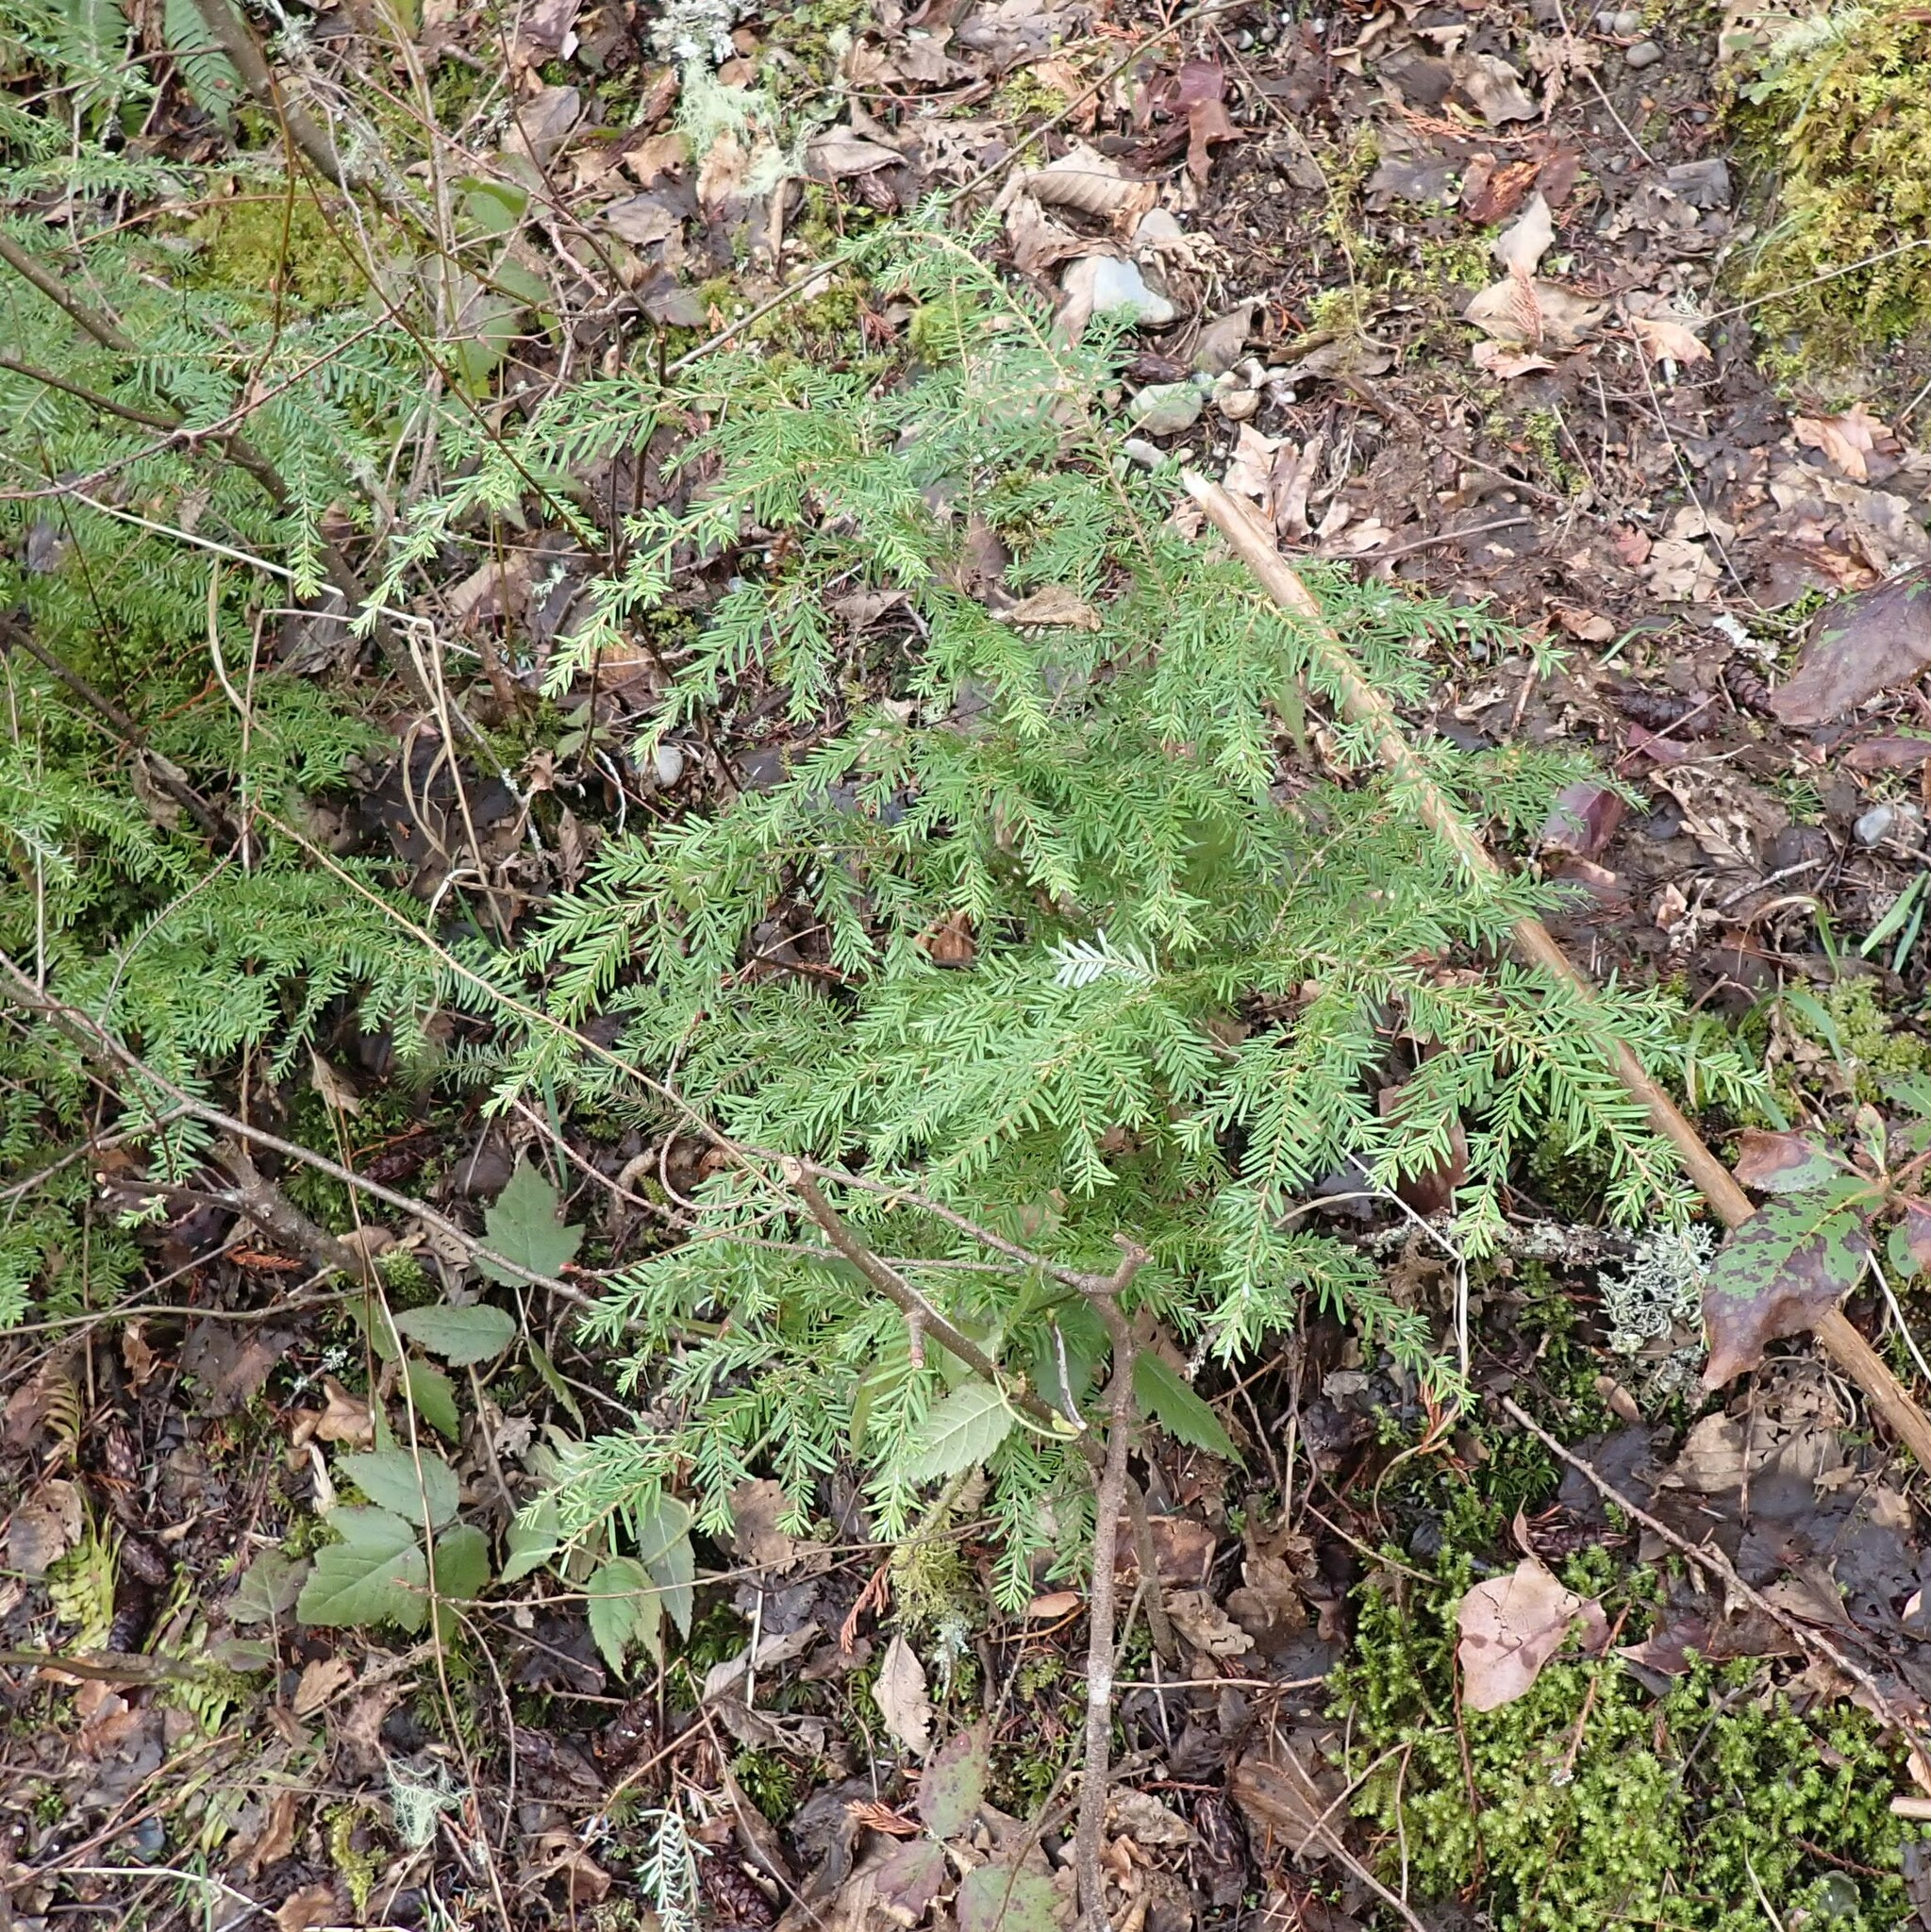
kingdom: Plantae
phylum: Tracheophyta
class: Pinopsida
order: Pinales
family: Pinaceae
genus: Tsuga
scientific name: Tsuga heterophylla
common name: Western hemlock
